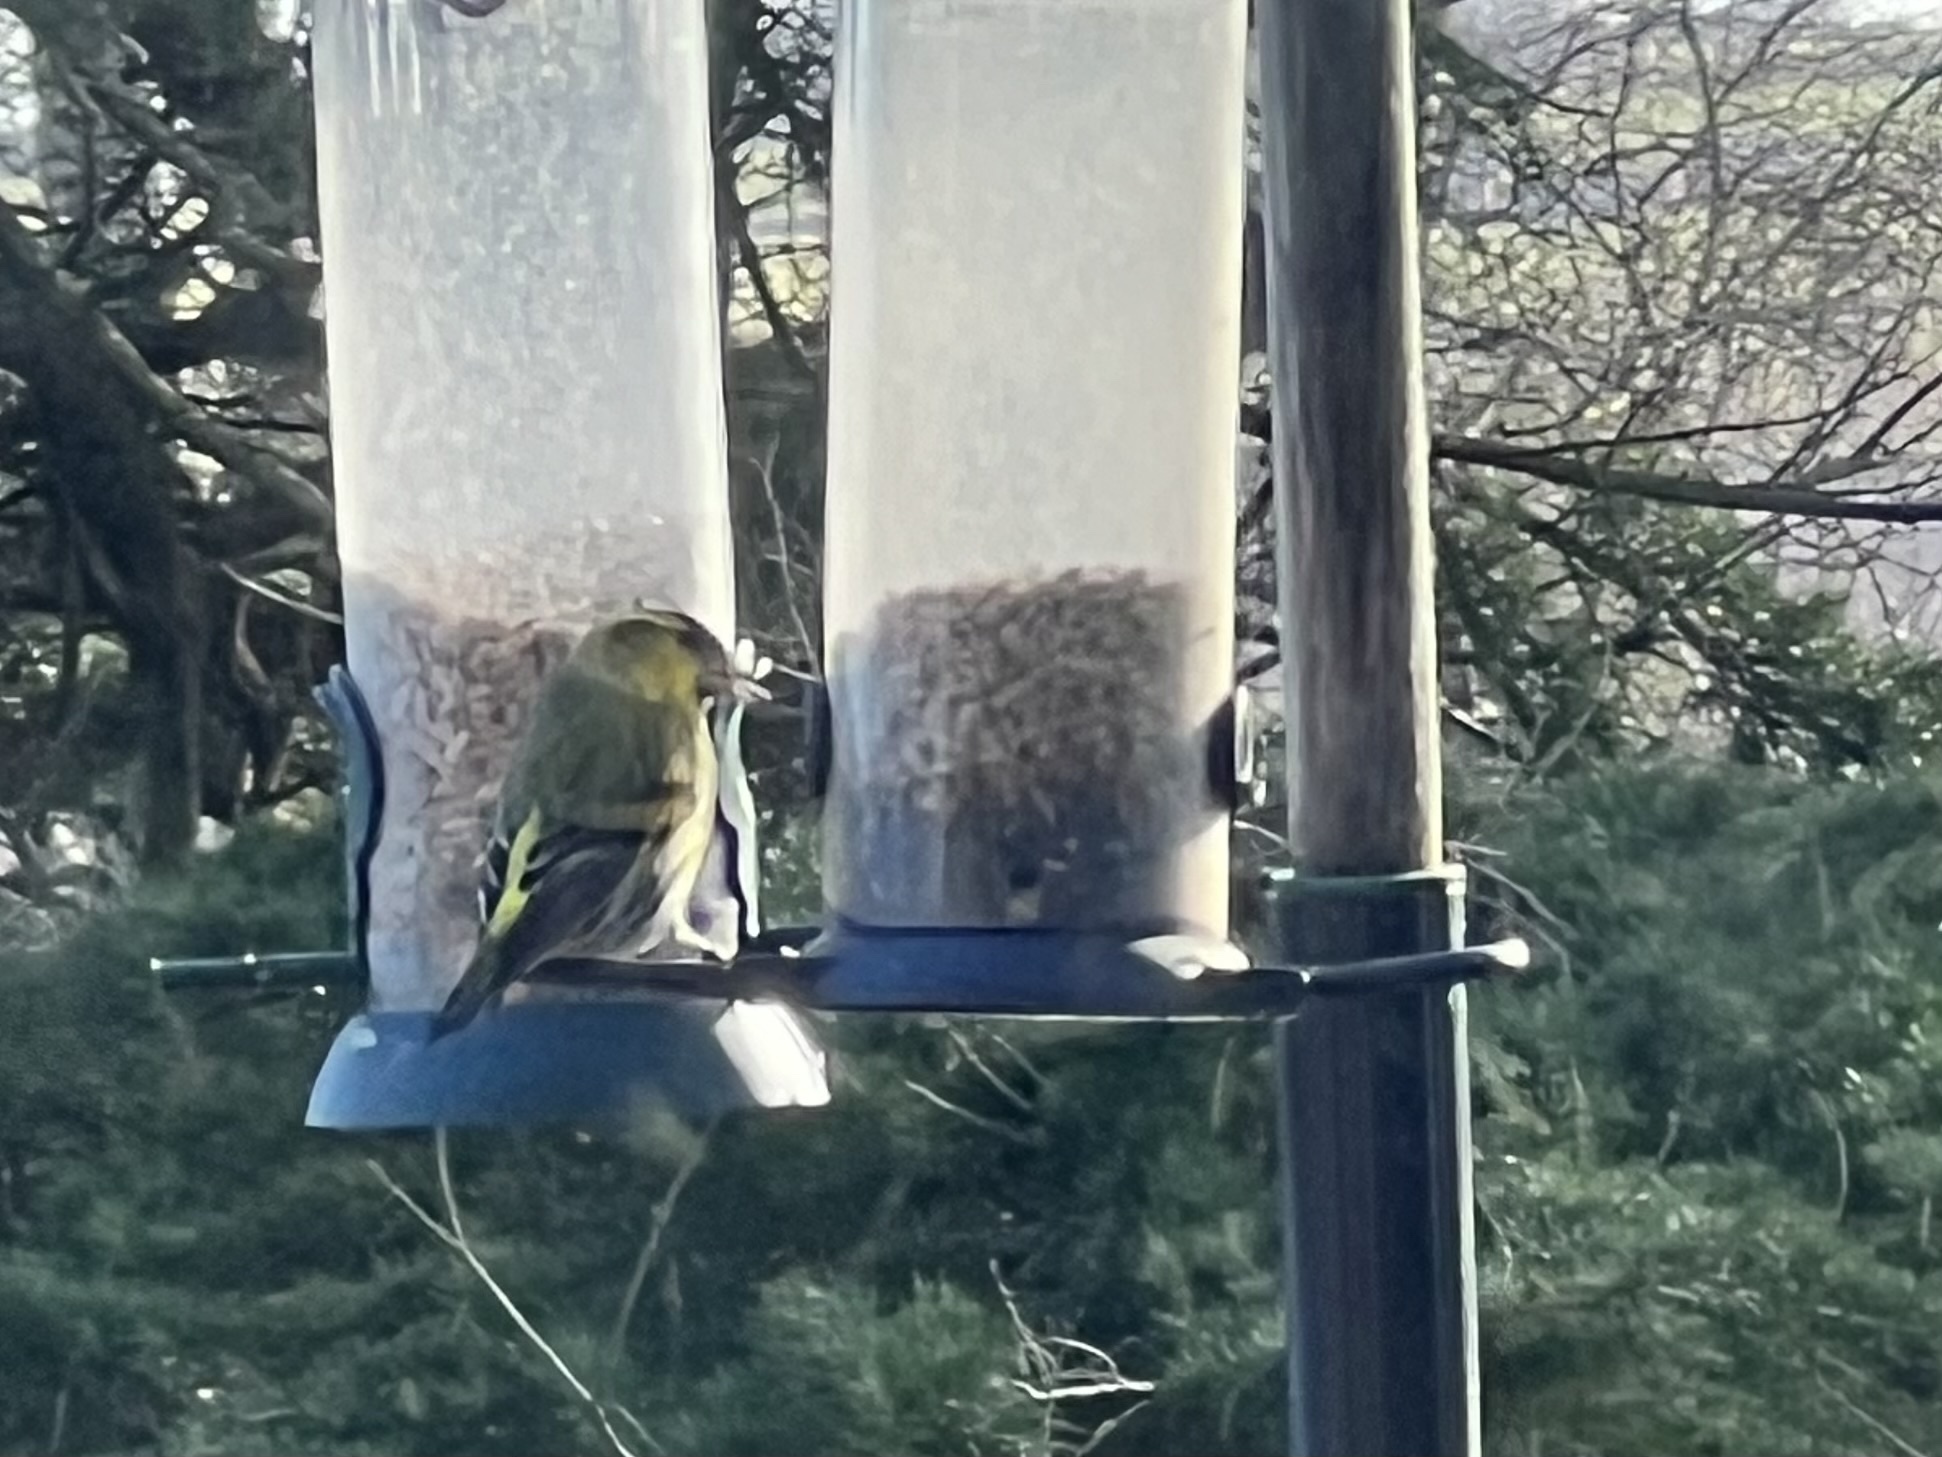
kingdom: Animalia
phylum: Chordata
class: Aves
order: Passeriformes
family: Fringillidae
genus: Spinus
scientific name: Spinus spinus
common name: Eurasian siskin
